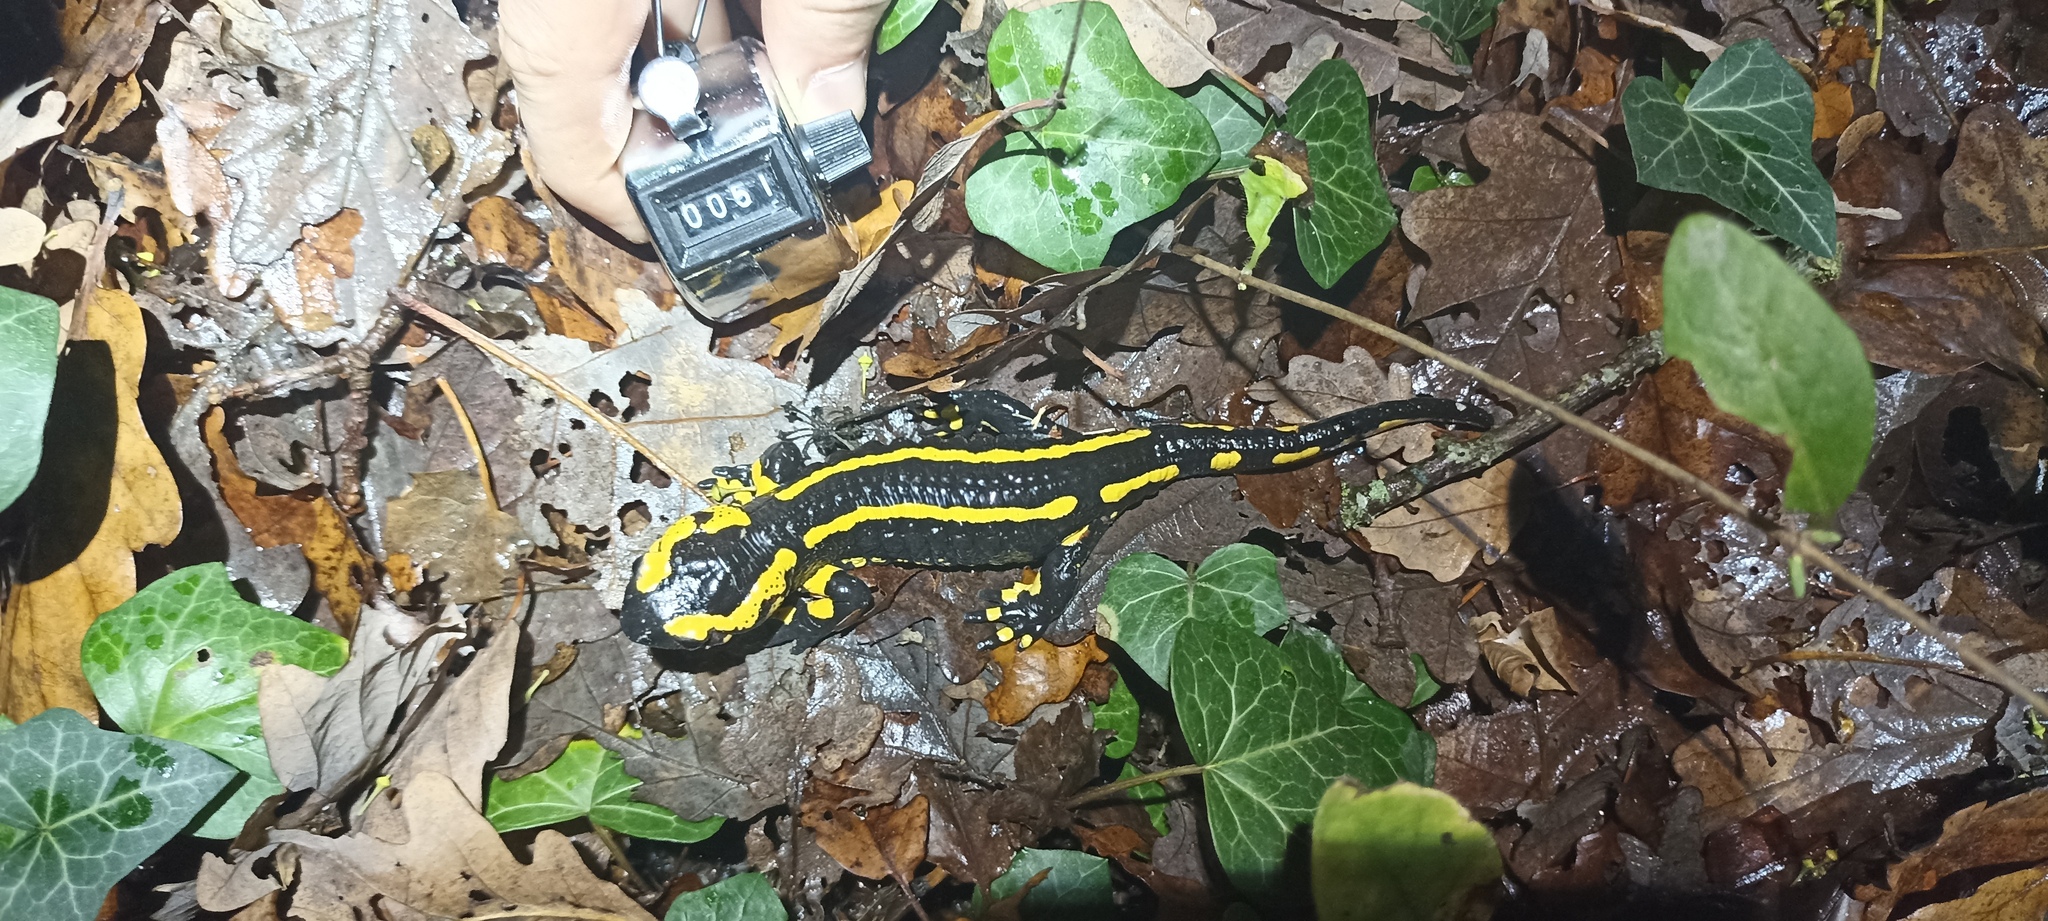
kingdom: Animalia
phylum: Chordata
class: Amphibia
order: Caudata
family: Salamandridae
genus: Salamandra
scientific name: Salamandra salamandra
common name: Fire salamander
